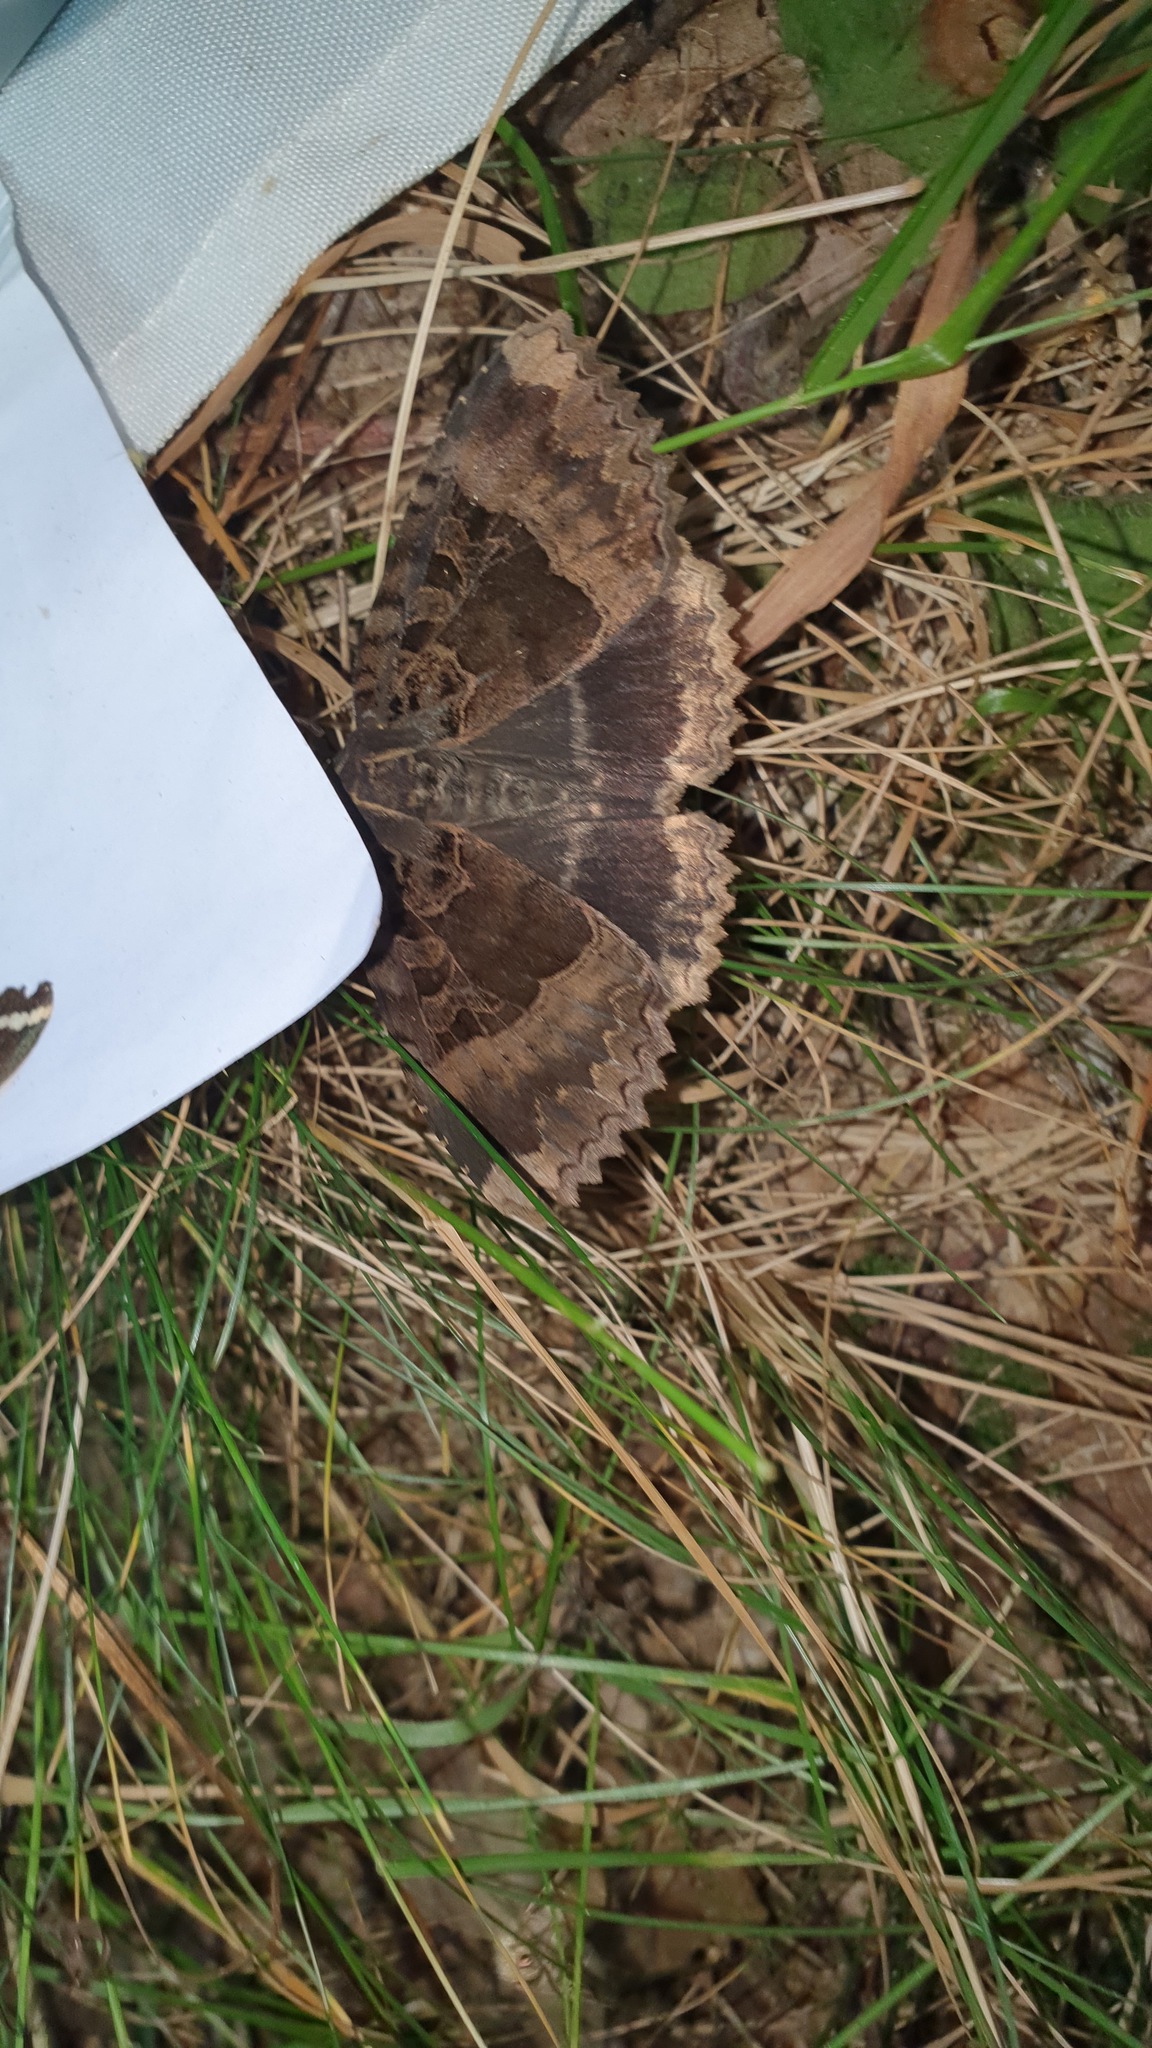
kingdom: Animalia
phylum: Arthropoda
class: Insecta
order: Lepidoptera
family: Noctuidae
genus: Mormo
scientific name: Mormo maura
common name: Old lady
